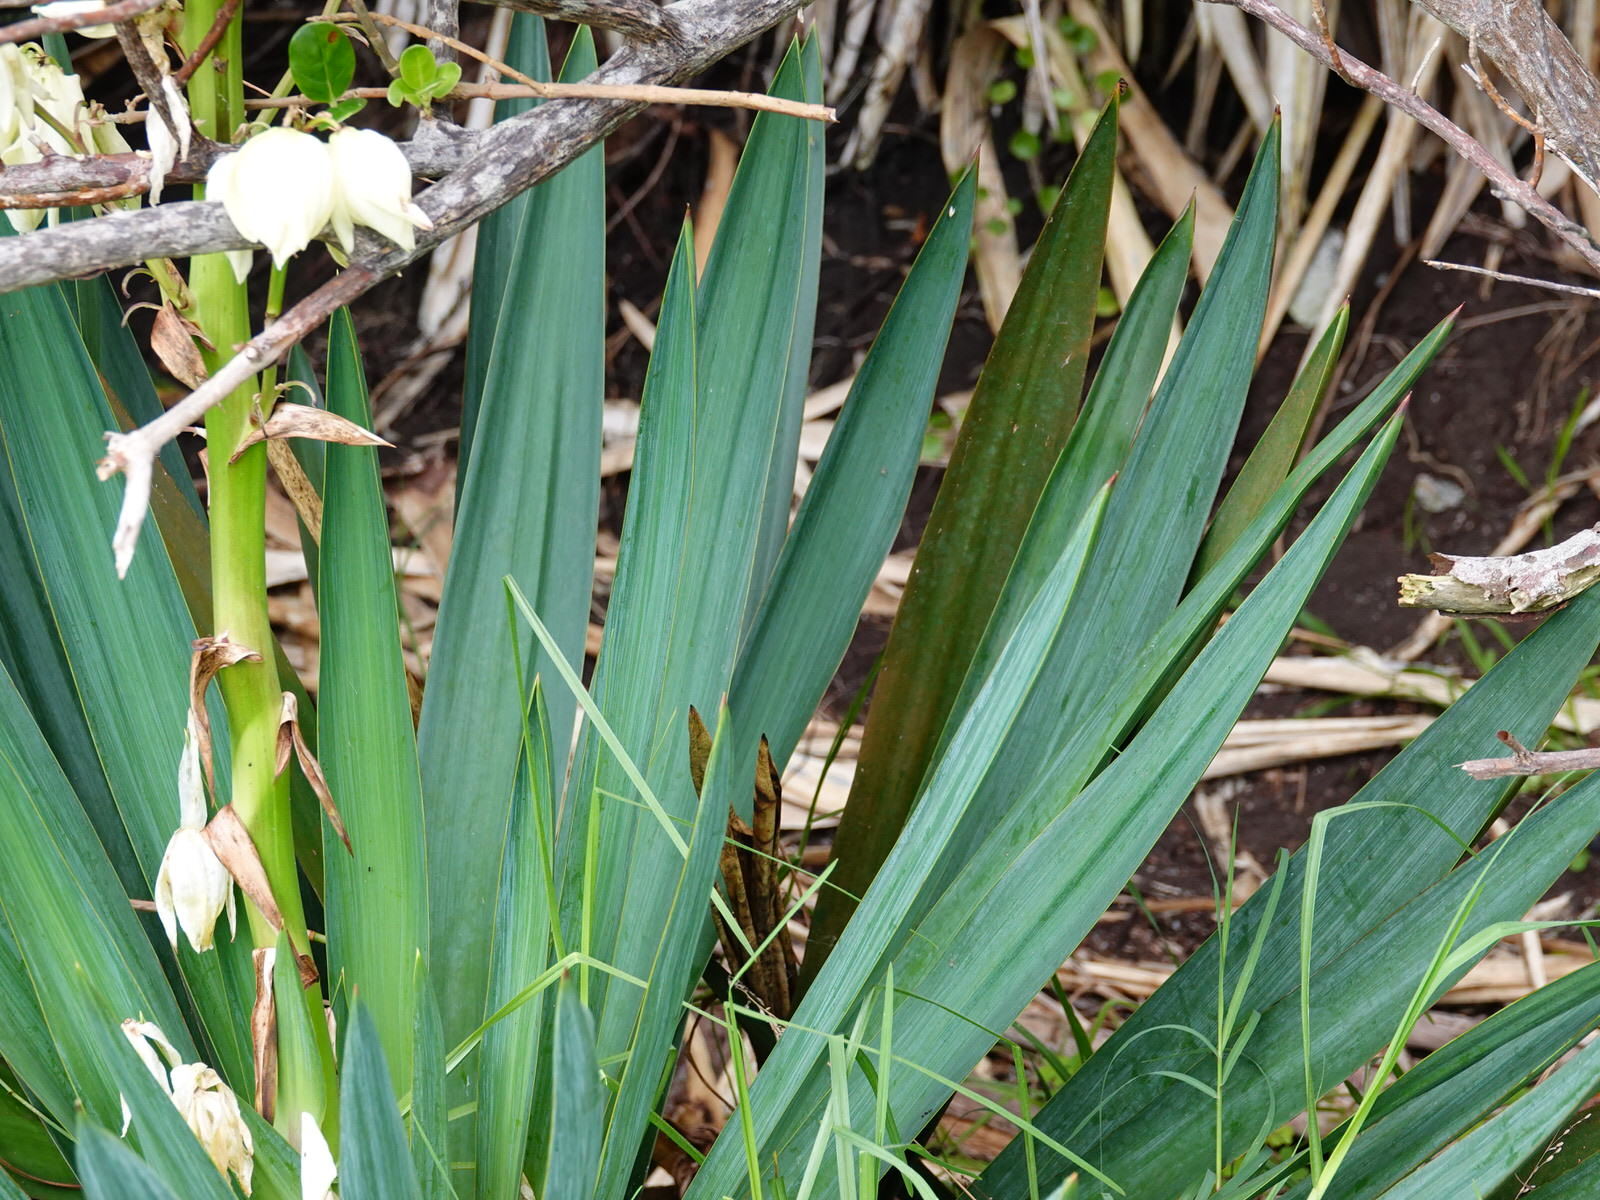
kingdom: Plantae
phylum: Tracheophyta
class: Liliopsida
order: Asparagales
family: Asparagaceae
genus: Yucca
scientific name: Yucca gloriosa
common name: Spanish-dagger
